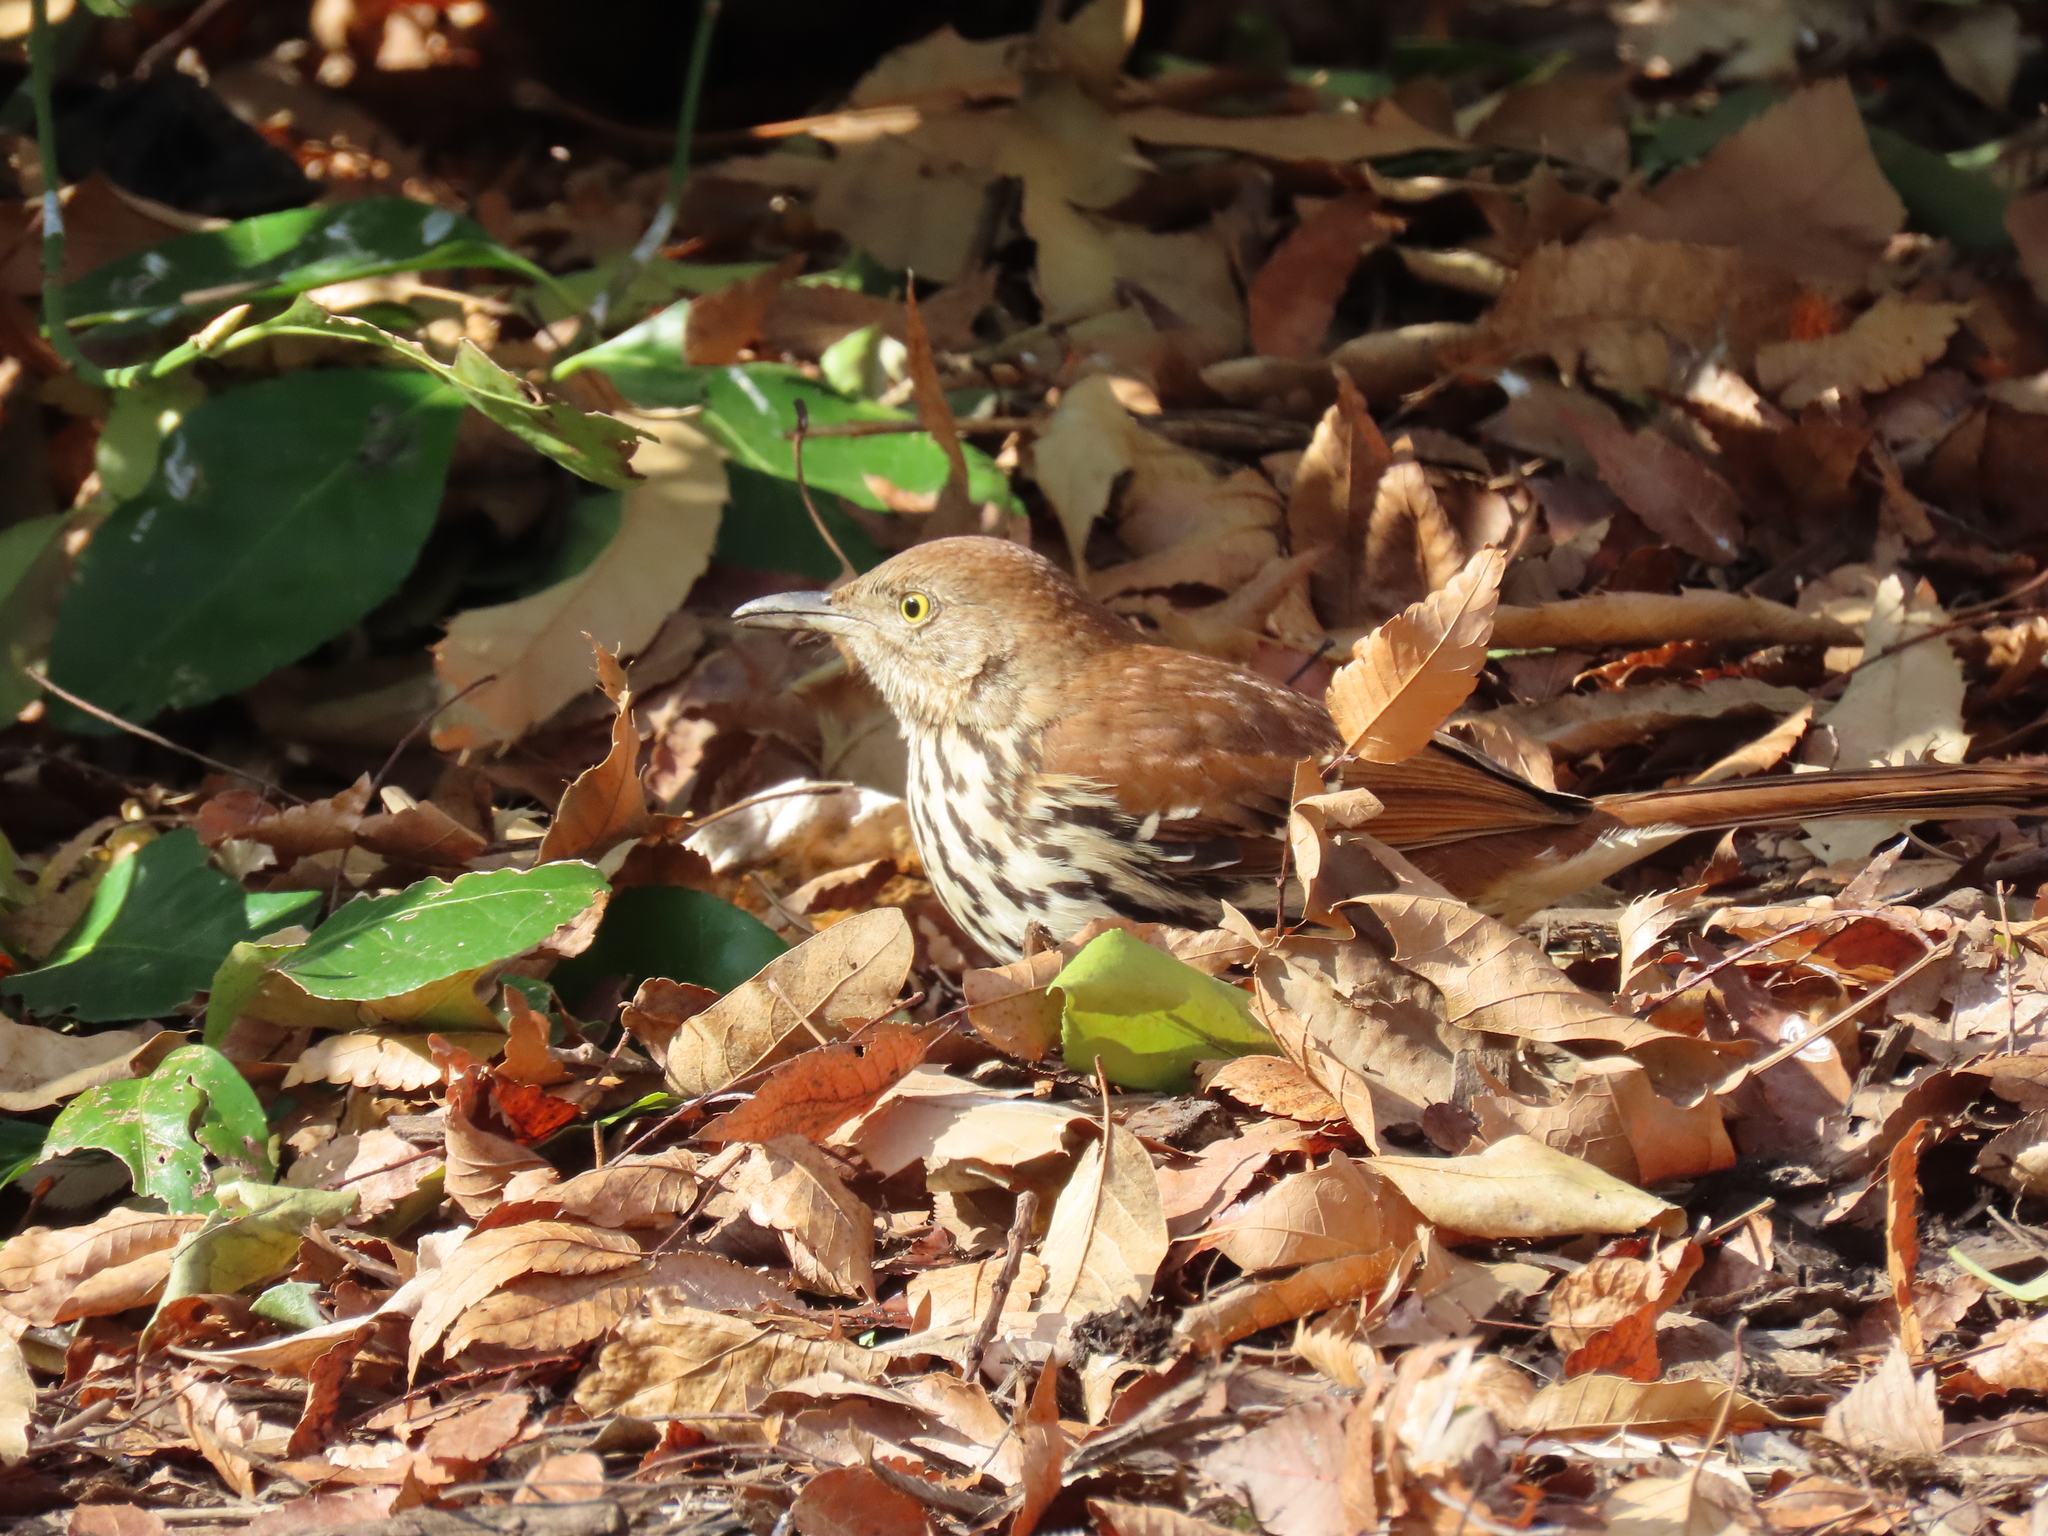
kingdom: Animalia
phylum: Chordata
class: Aves
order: Passeriformes
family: Mimidae
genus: Toxostoma
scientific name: Toxostoma rufum
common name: Brown thrasher
